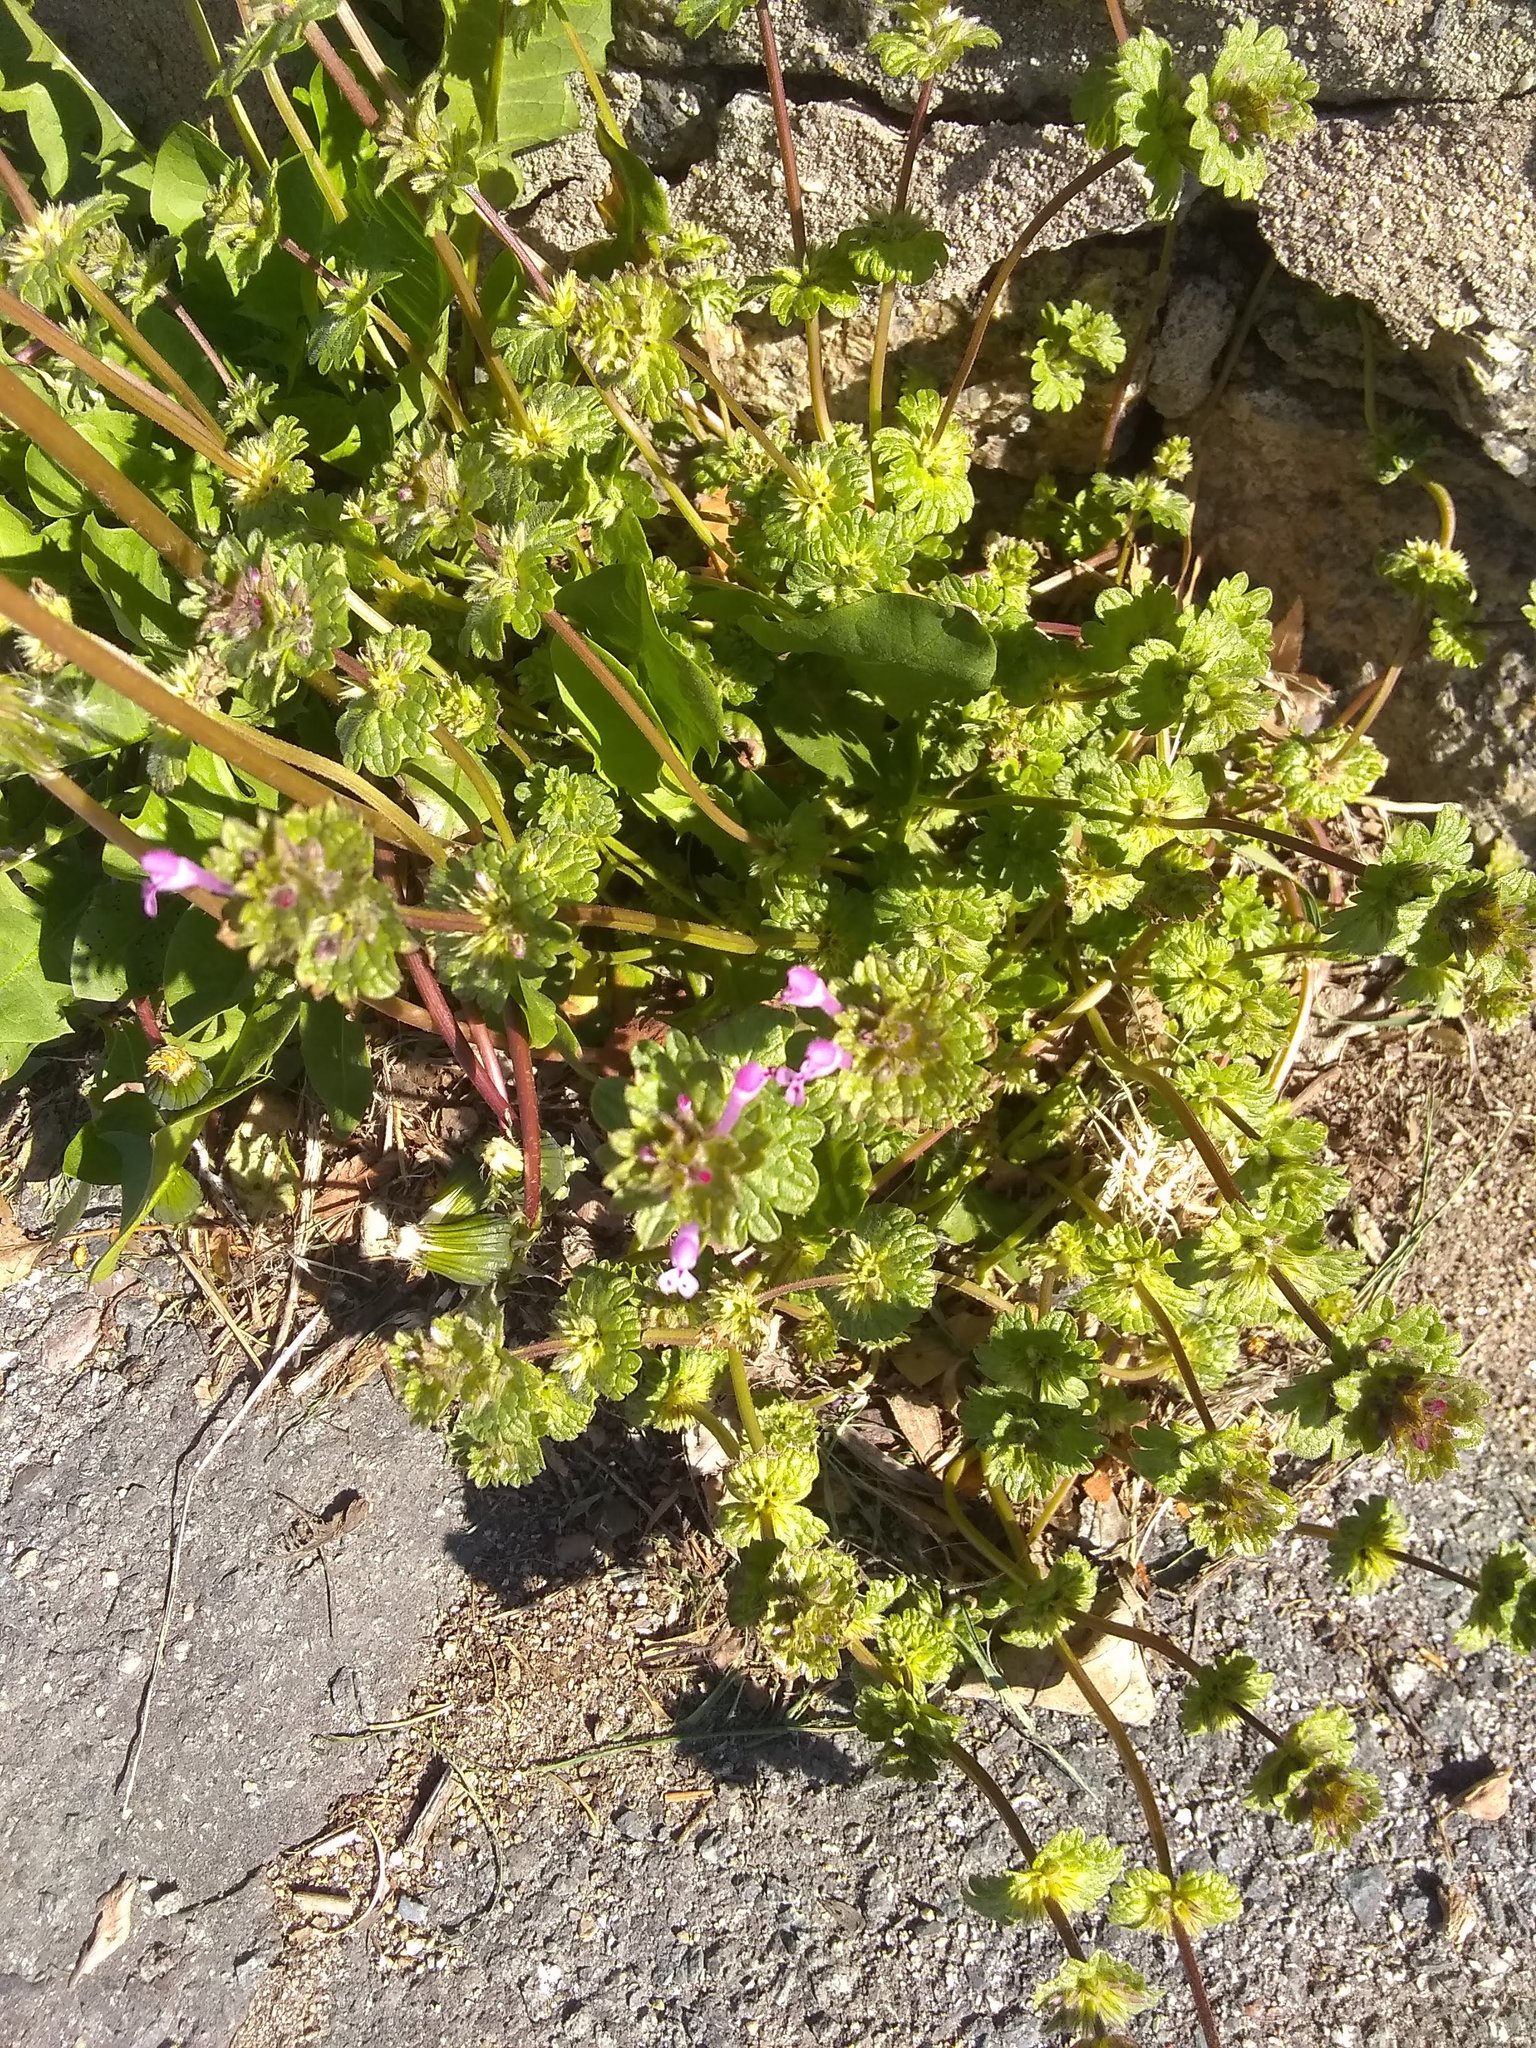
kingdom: Plantae
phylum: Tracheophyta
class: Magnoliopsida
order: Lamiales
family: Lamiaceae
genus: Lamium
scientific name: Lamium amplexicaule
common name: Henbit dead-nettle
